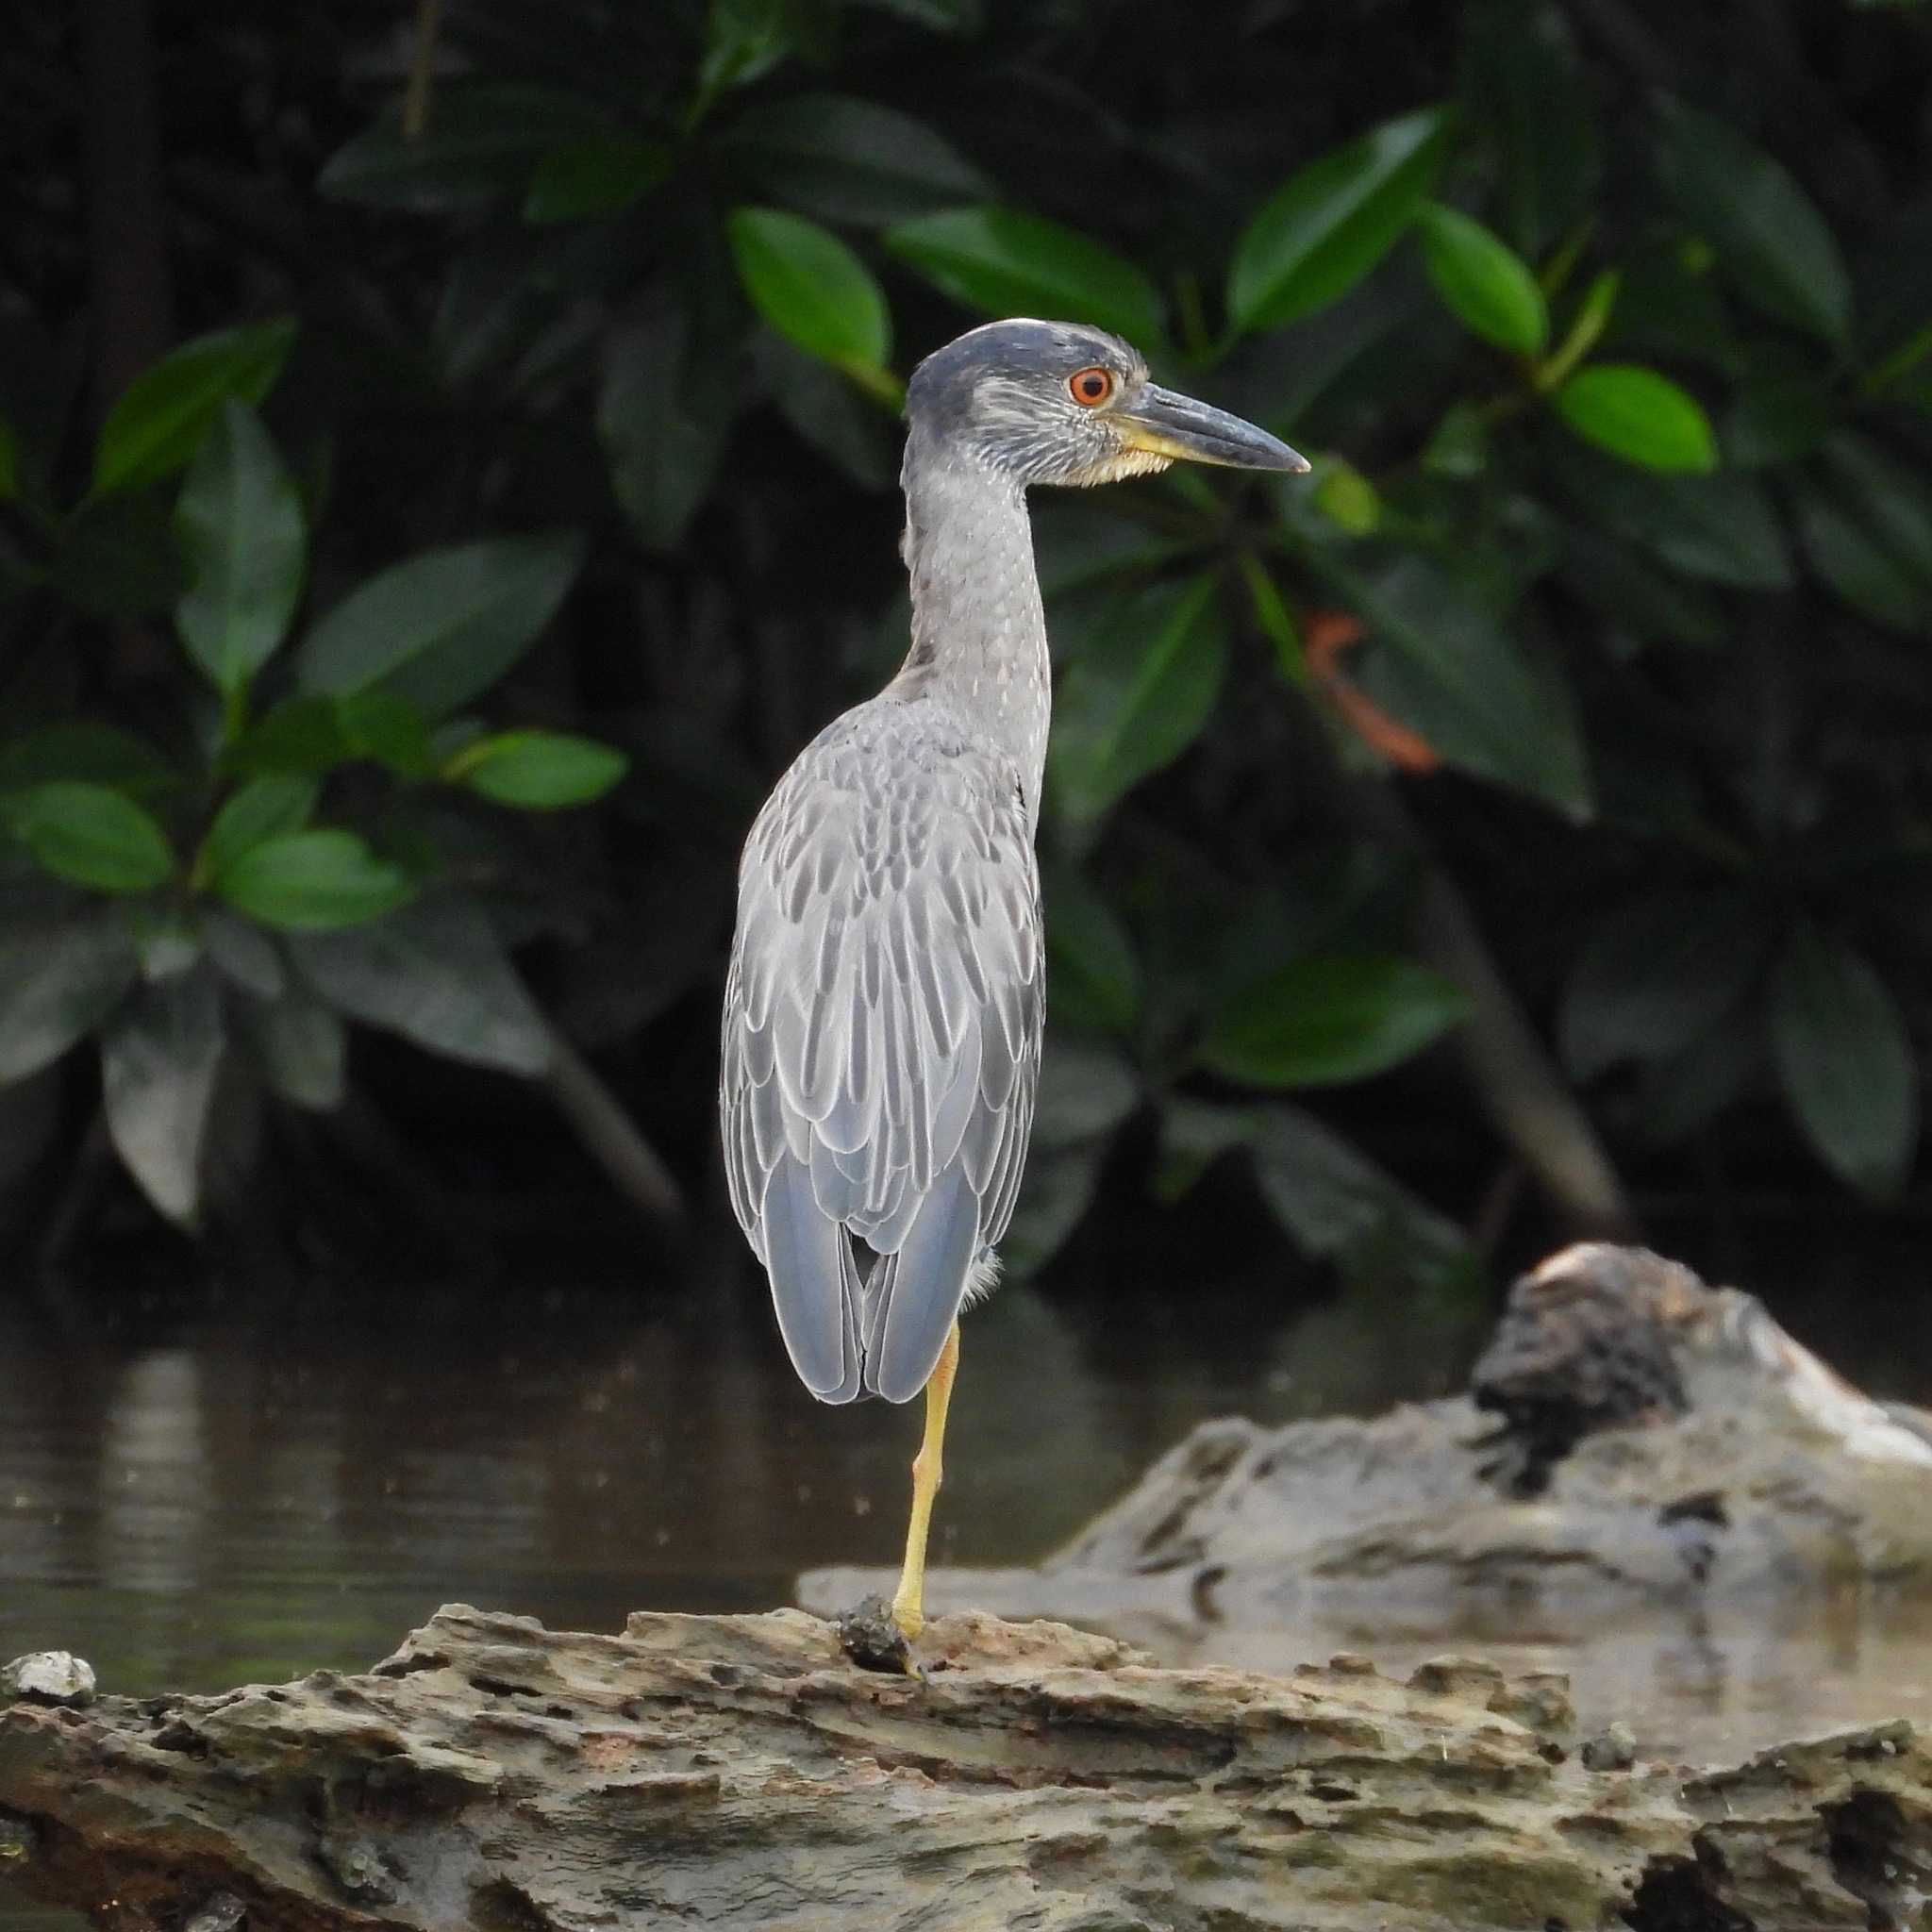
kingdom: Animalia
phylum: Chordata
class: Aves
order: Pelecaniformes
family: Ardeidae
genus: Nyctanassa
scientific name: Nyctanassa violacea
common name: Yellow-crowned night heron
